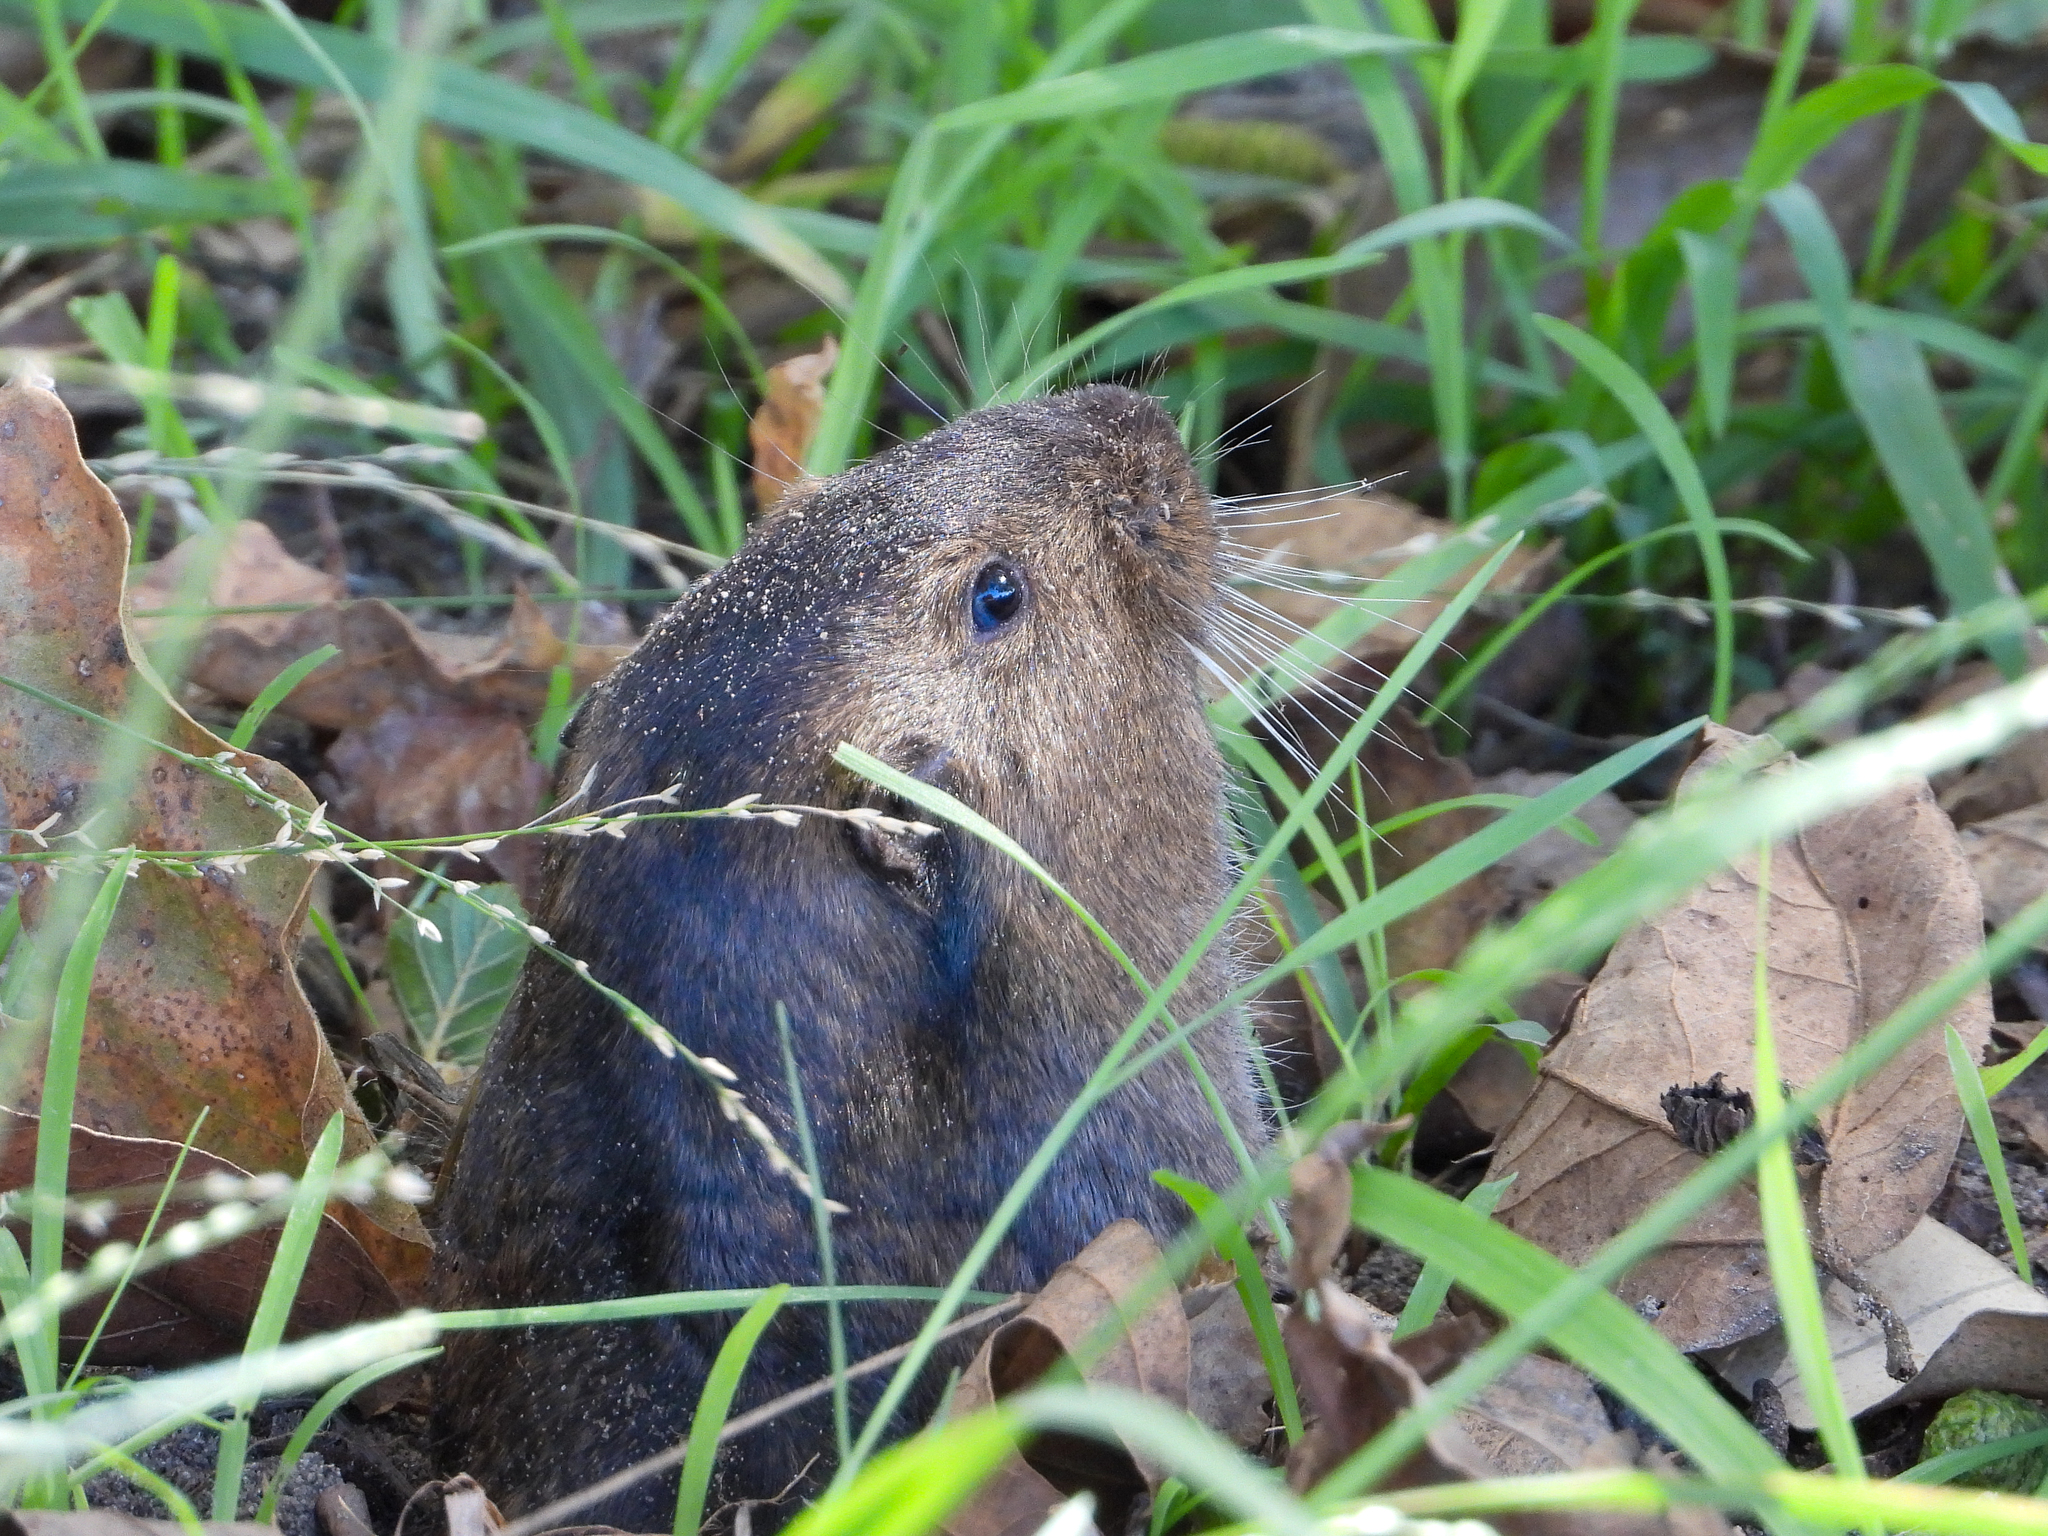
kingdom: Animalia
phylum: Chordata
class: Mammalia
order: Rodentia
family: Geomyidae
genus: Thomomys
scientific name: Thomomys bottae
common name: Botta's pocket gopher
